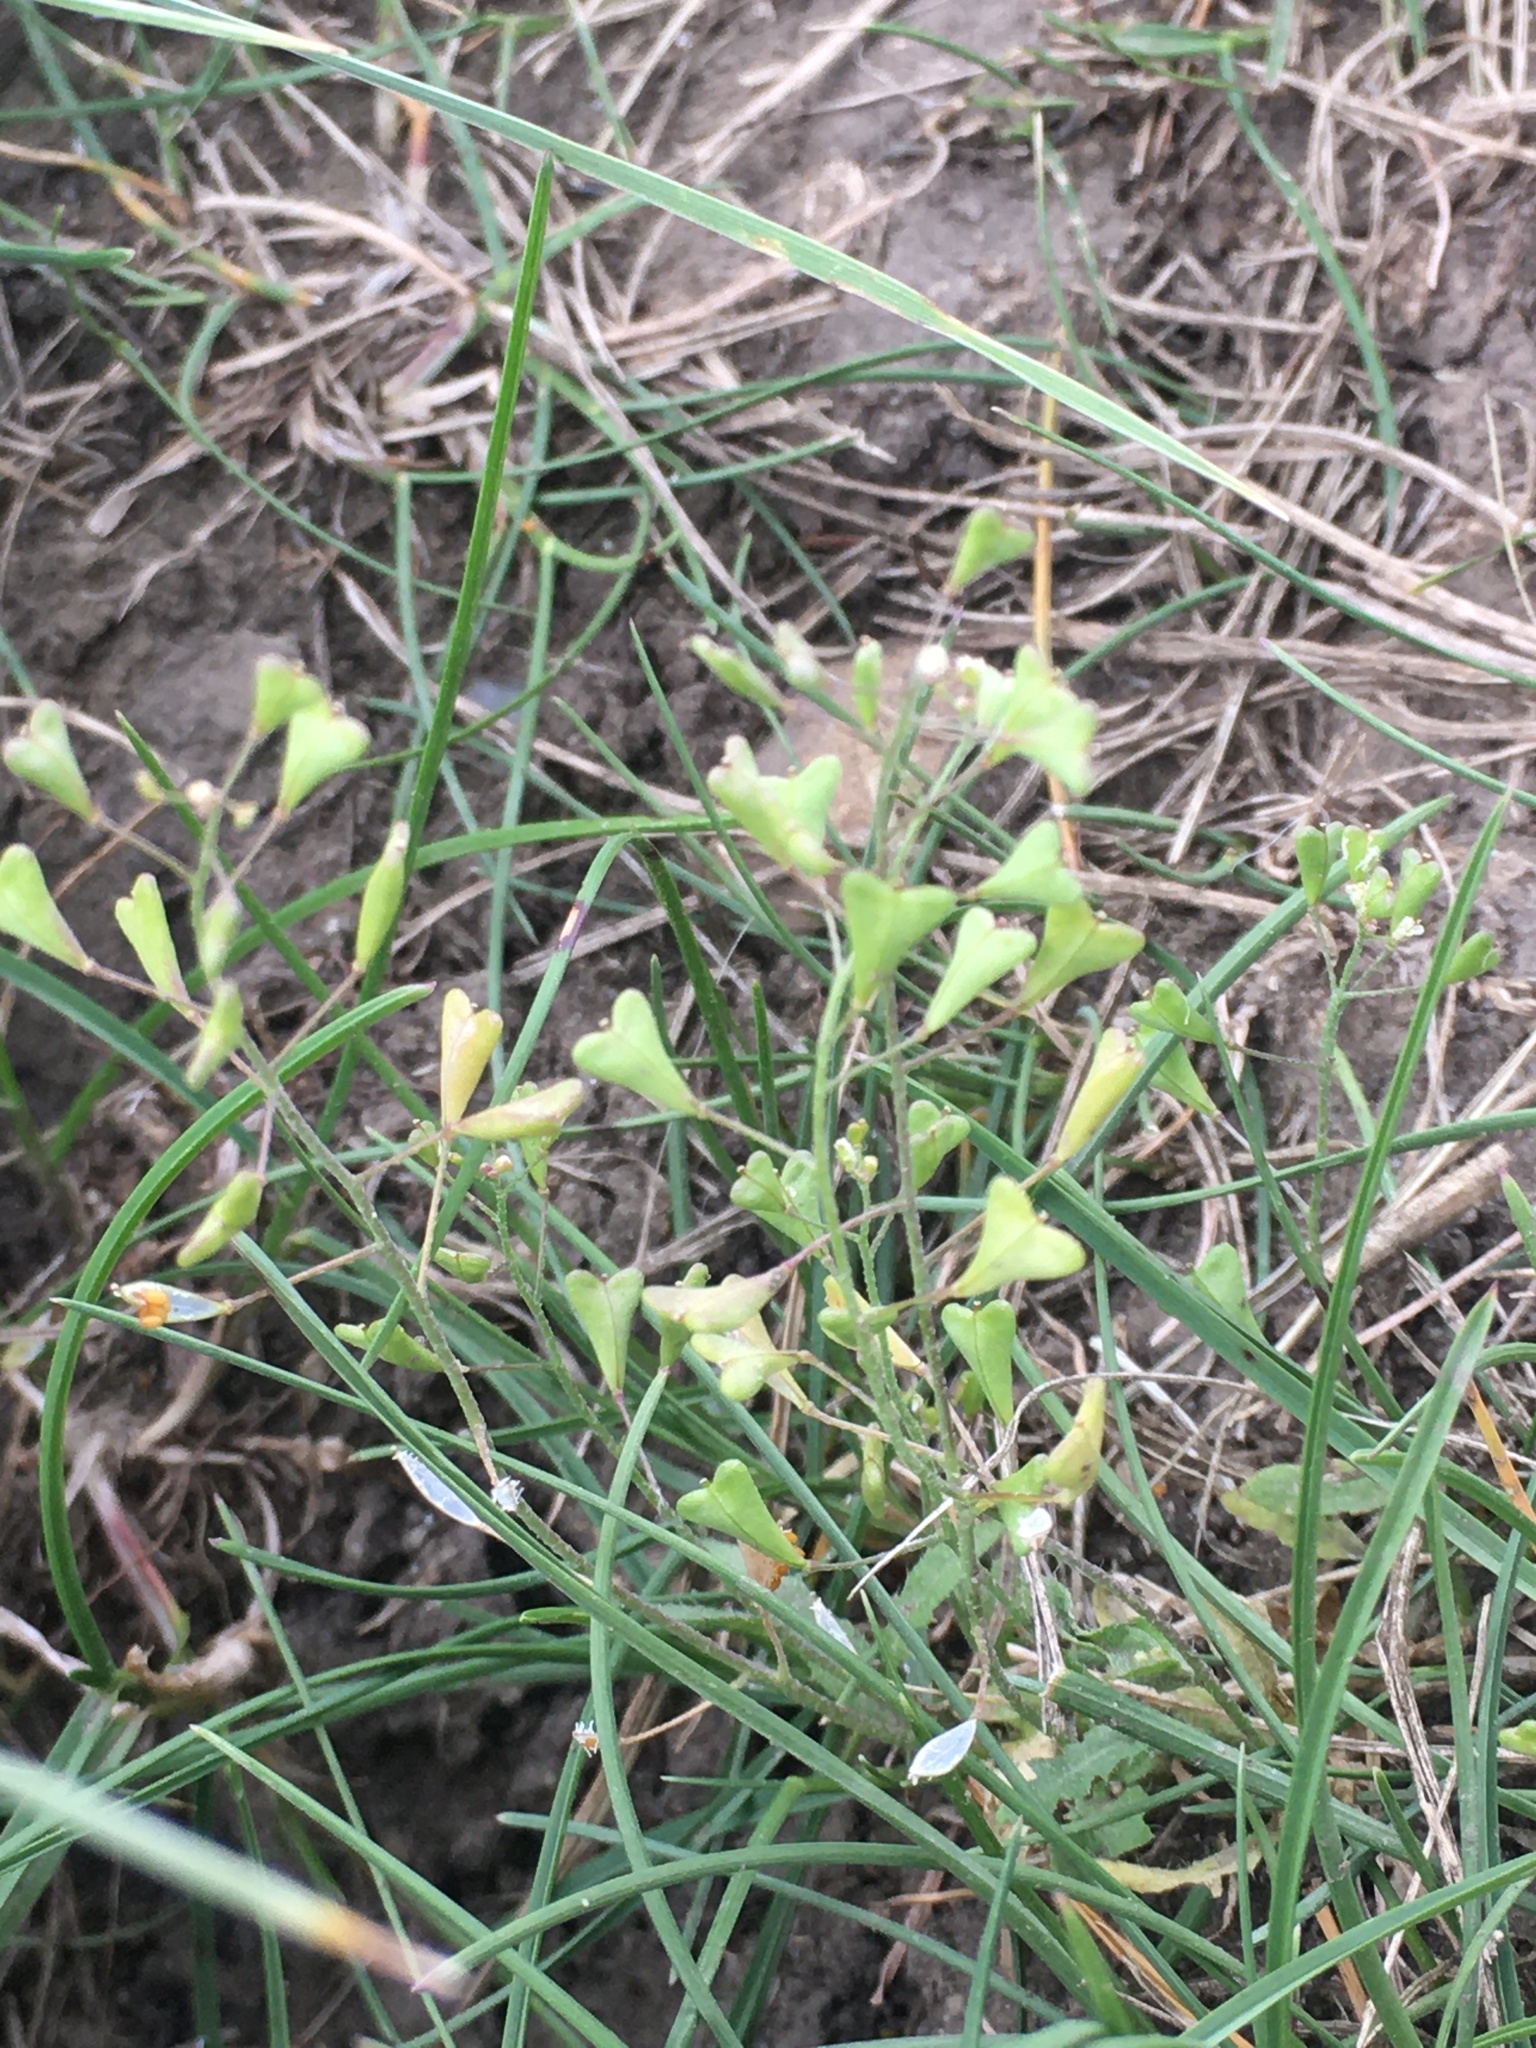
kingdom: Plantae
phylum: Tracheophyta
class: Magnoliopsida
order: Brassicales
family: Brassicaceae
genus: Capsella
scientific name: Capsella bursa-pastoris
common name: Shepherd's purse
